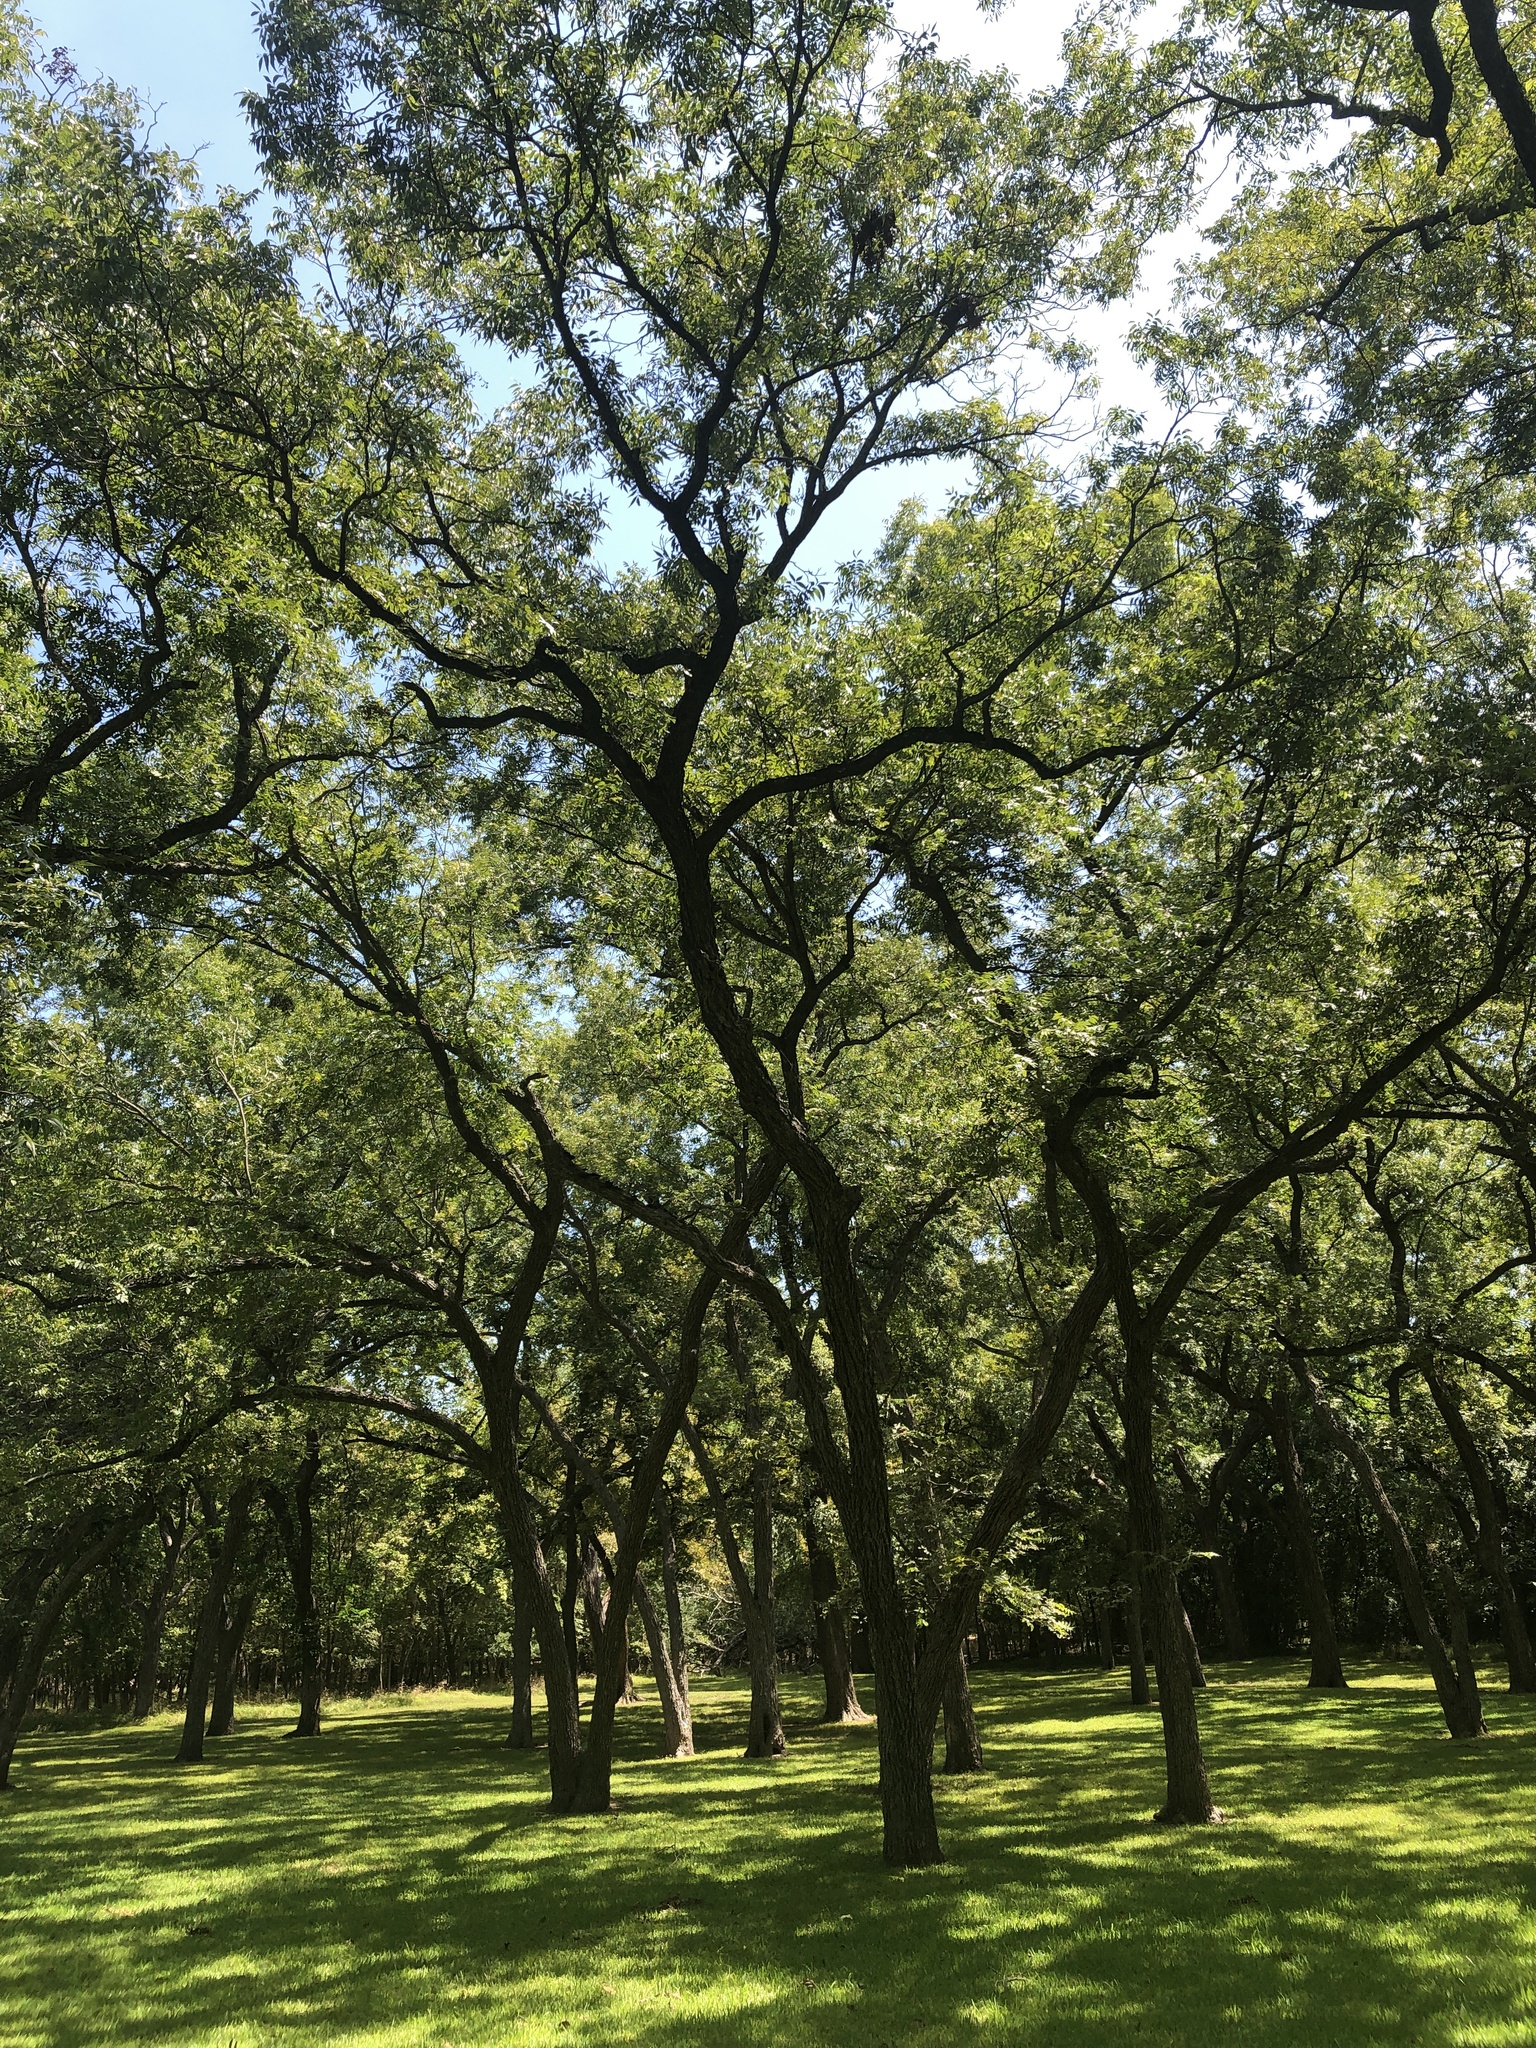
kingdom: Plantae
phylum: Tracheophyta
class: Magnoliopsida
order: Fagales
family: Juglandaceae
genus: Carya
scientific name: Carya illinoinensis
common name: Pecan
